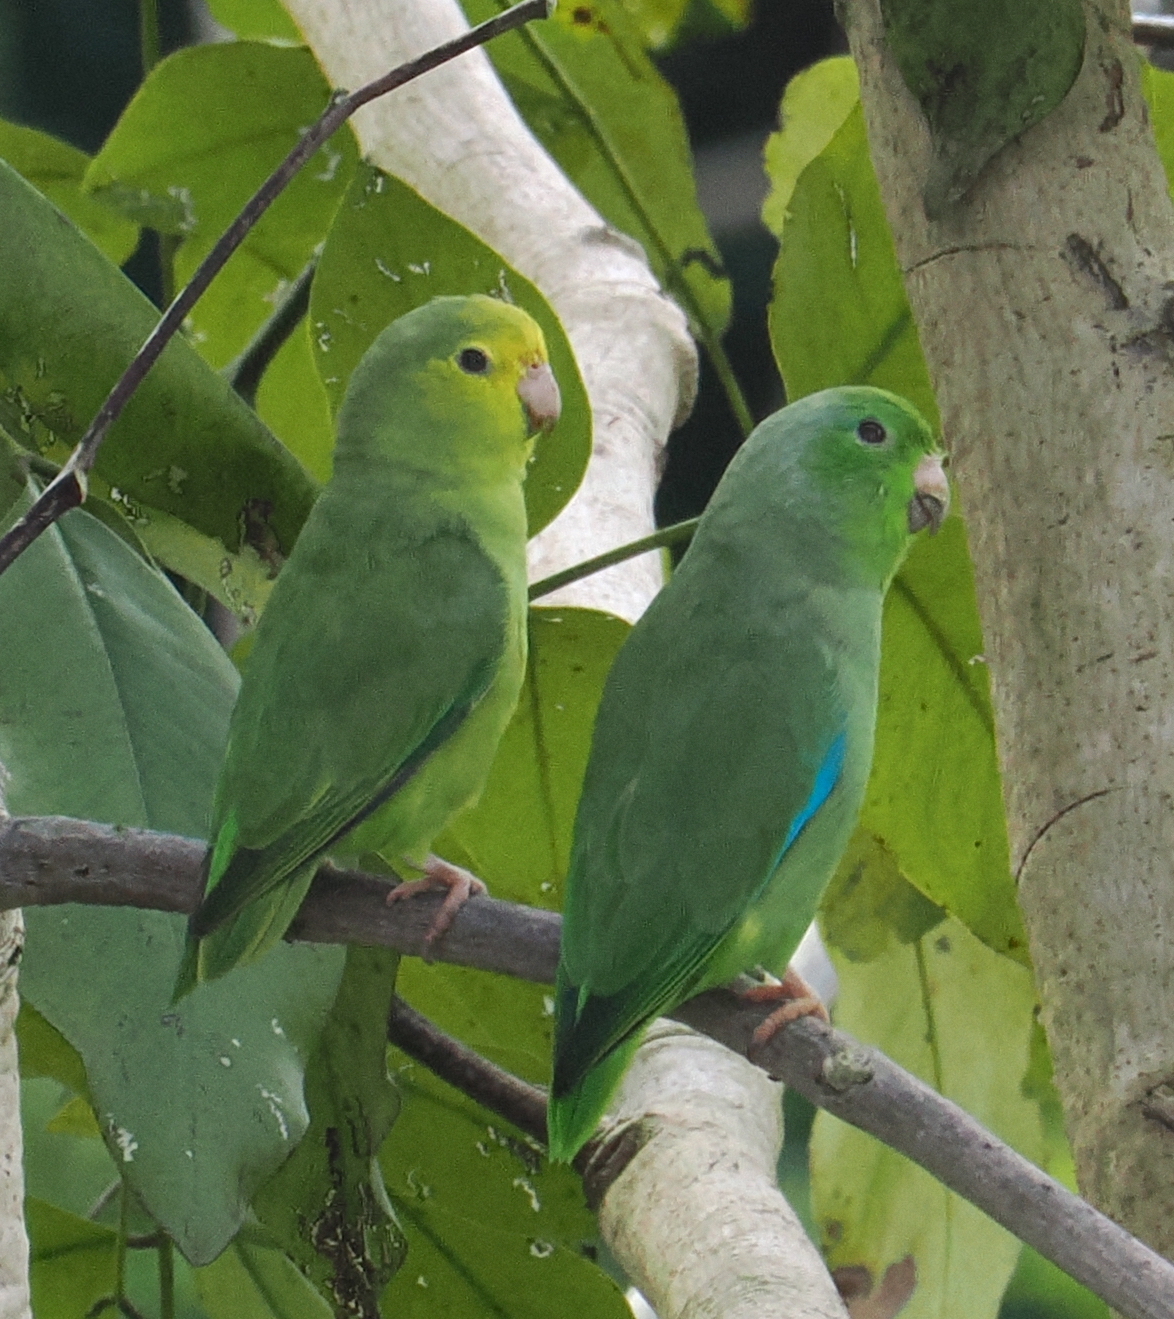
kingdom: Animalia
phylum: Chordata
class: Aves
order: Psittaciformes
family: Psittacidae
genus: Forpus
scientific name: Forpus xanthopterygius
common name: Blue-winged parrotlet
